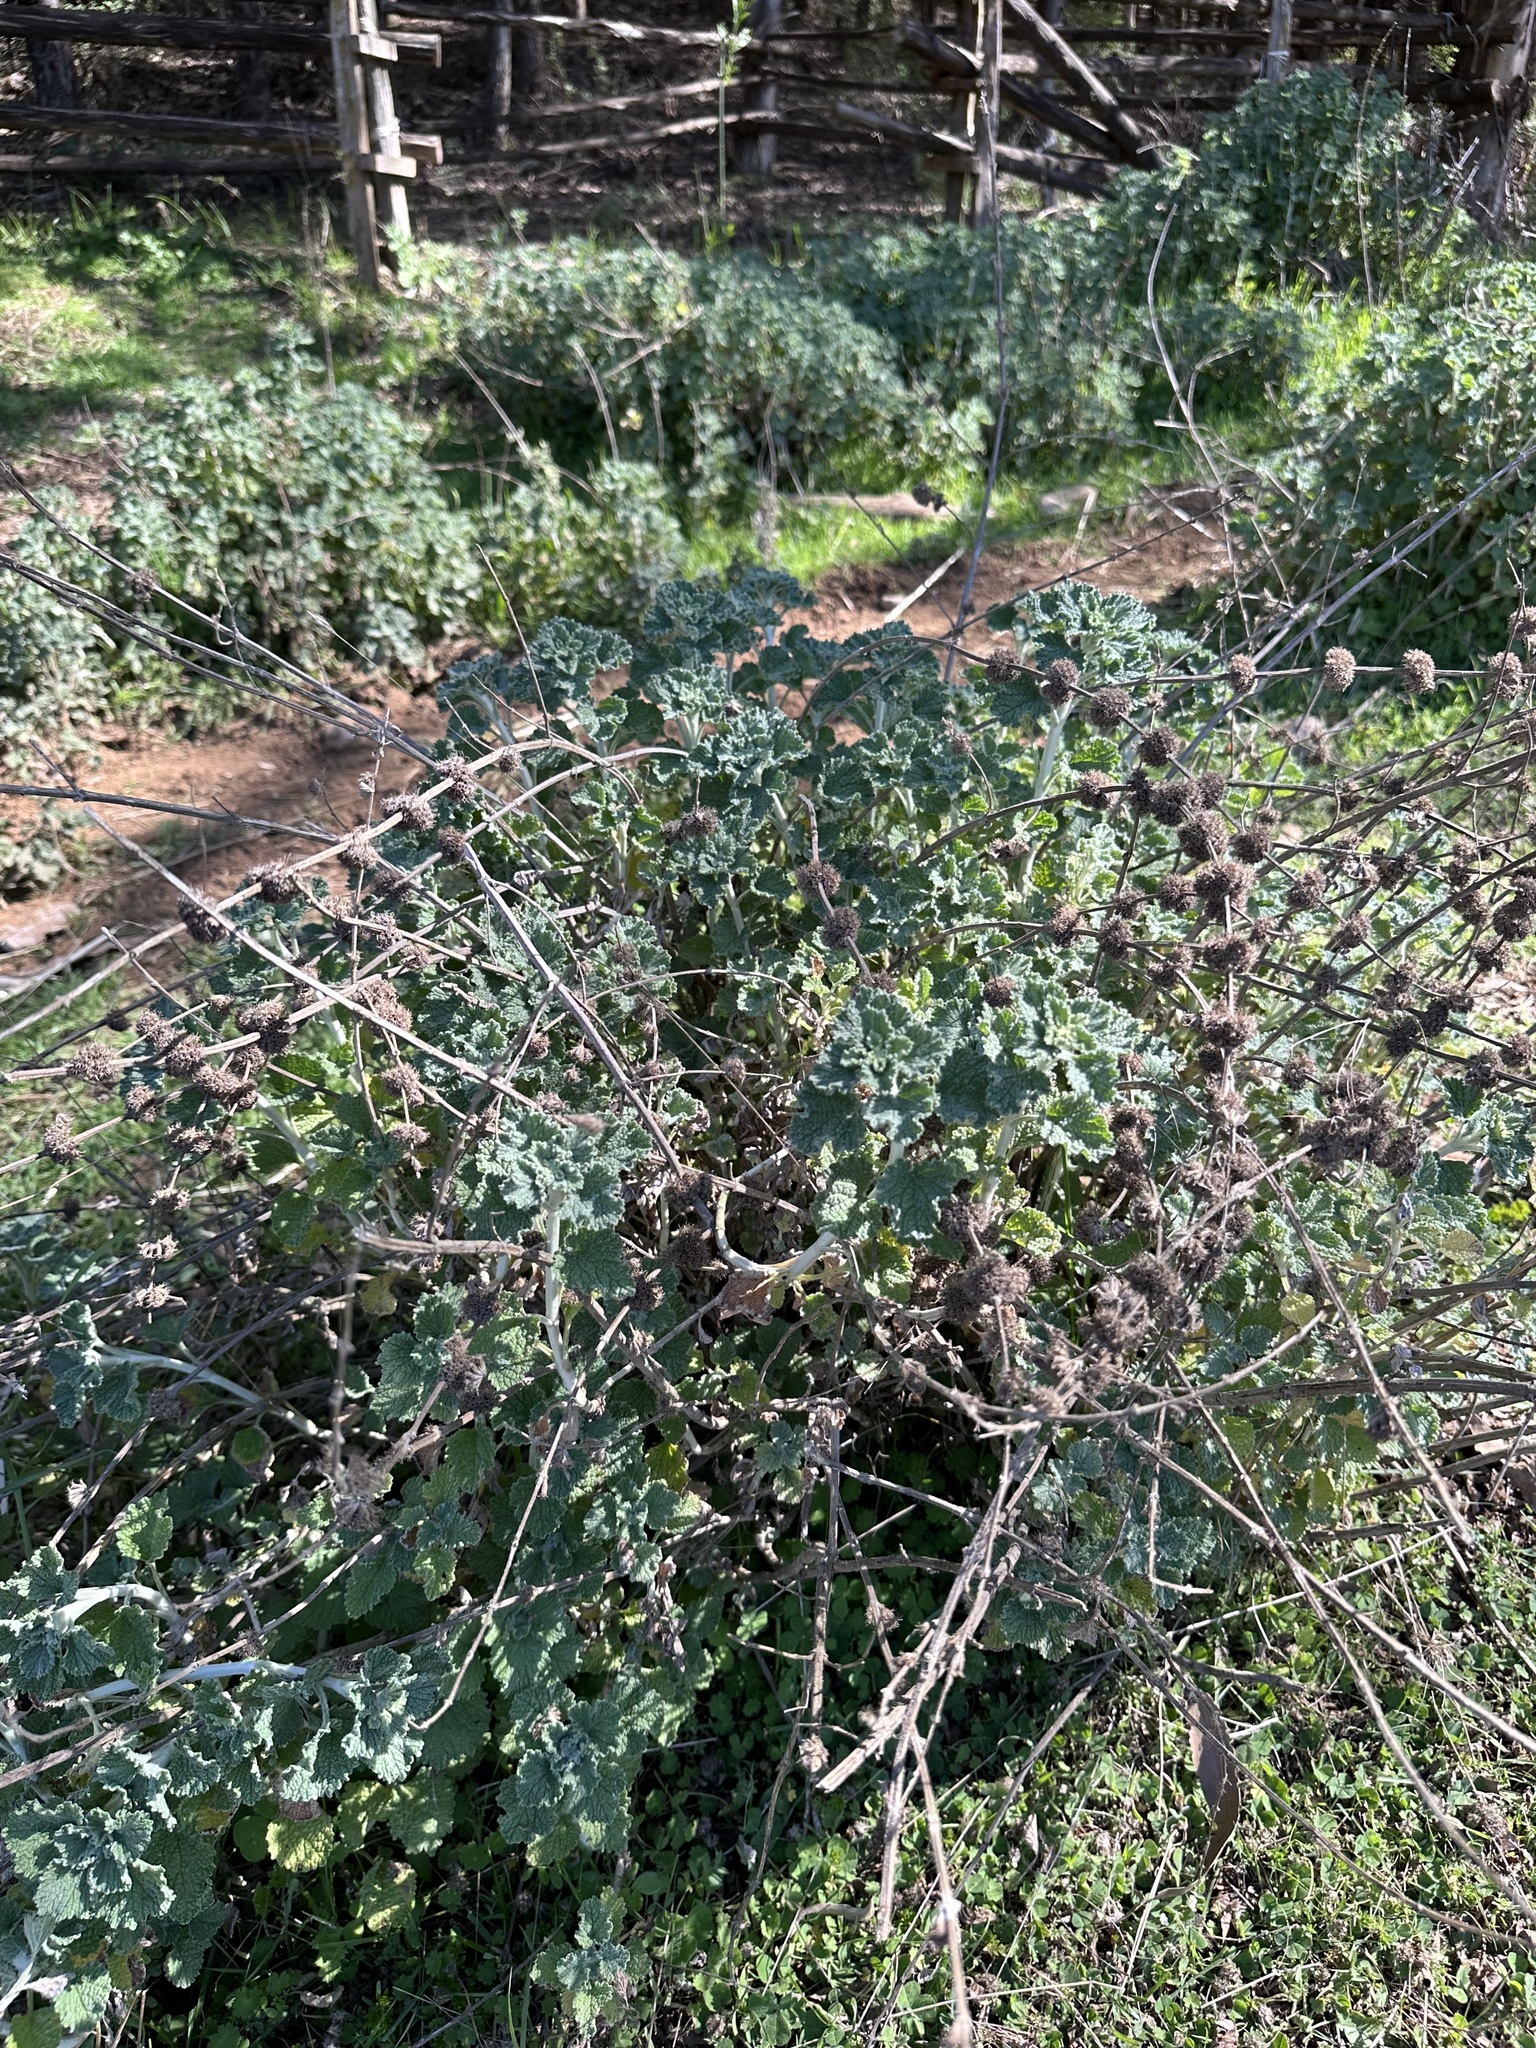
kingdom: Plantae
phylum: Tracheophyta
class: Magnoliopsida
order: Lamiales
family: Lamiaceae
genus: Marrubium
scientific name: Marrubium vulgare
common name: Horehound
